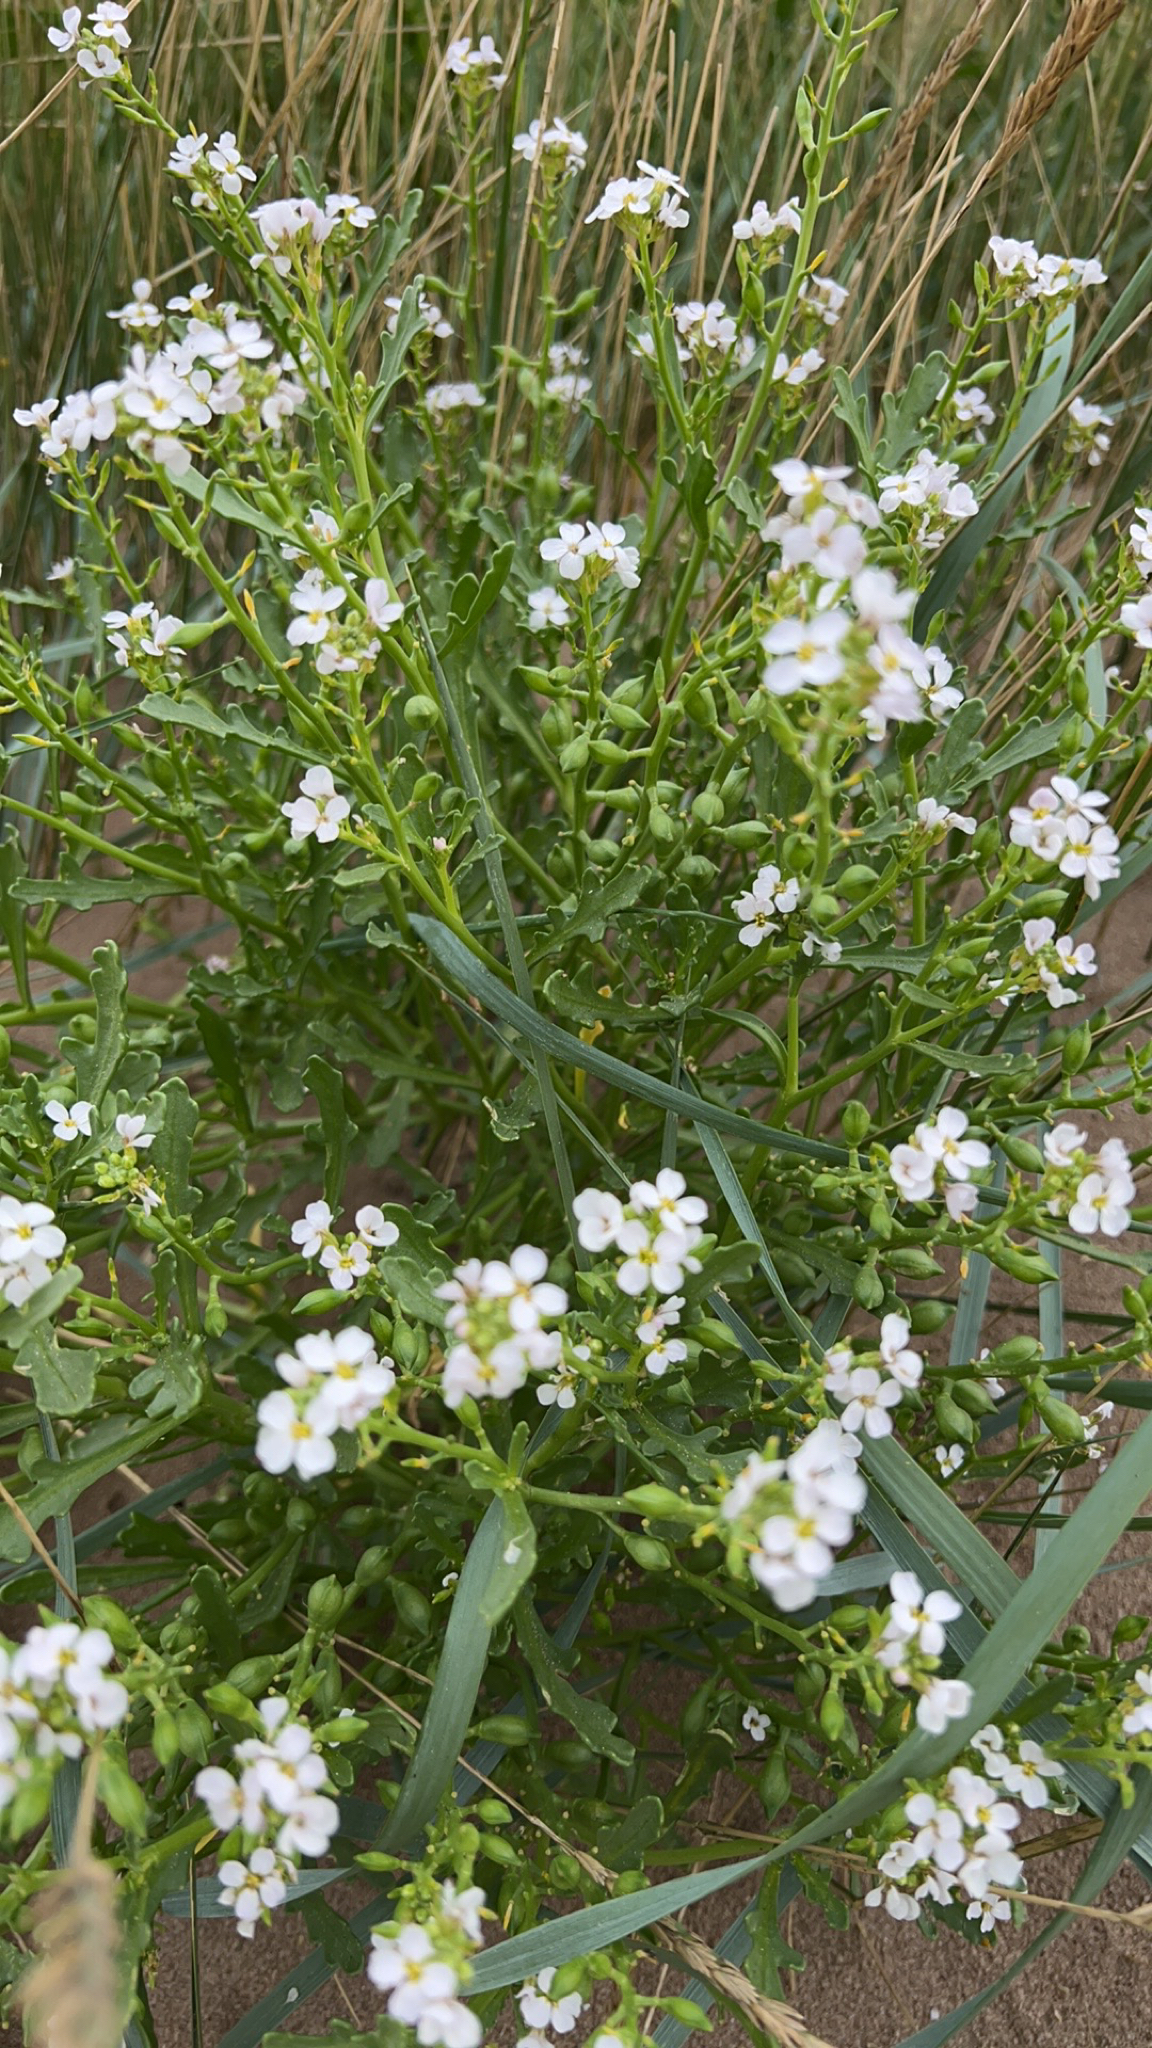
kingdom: Plantae
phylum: Tracheophyta
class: Magnoliopsida
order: Brassicales
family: Brassicaceae
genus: Cakile
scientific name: Cakile maritima
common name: Sea rocket
